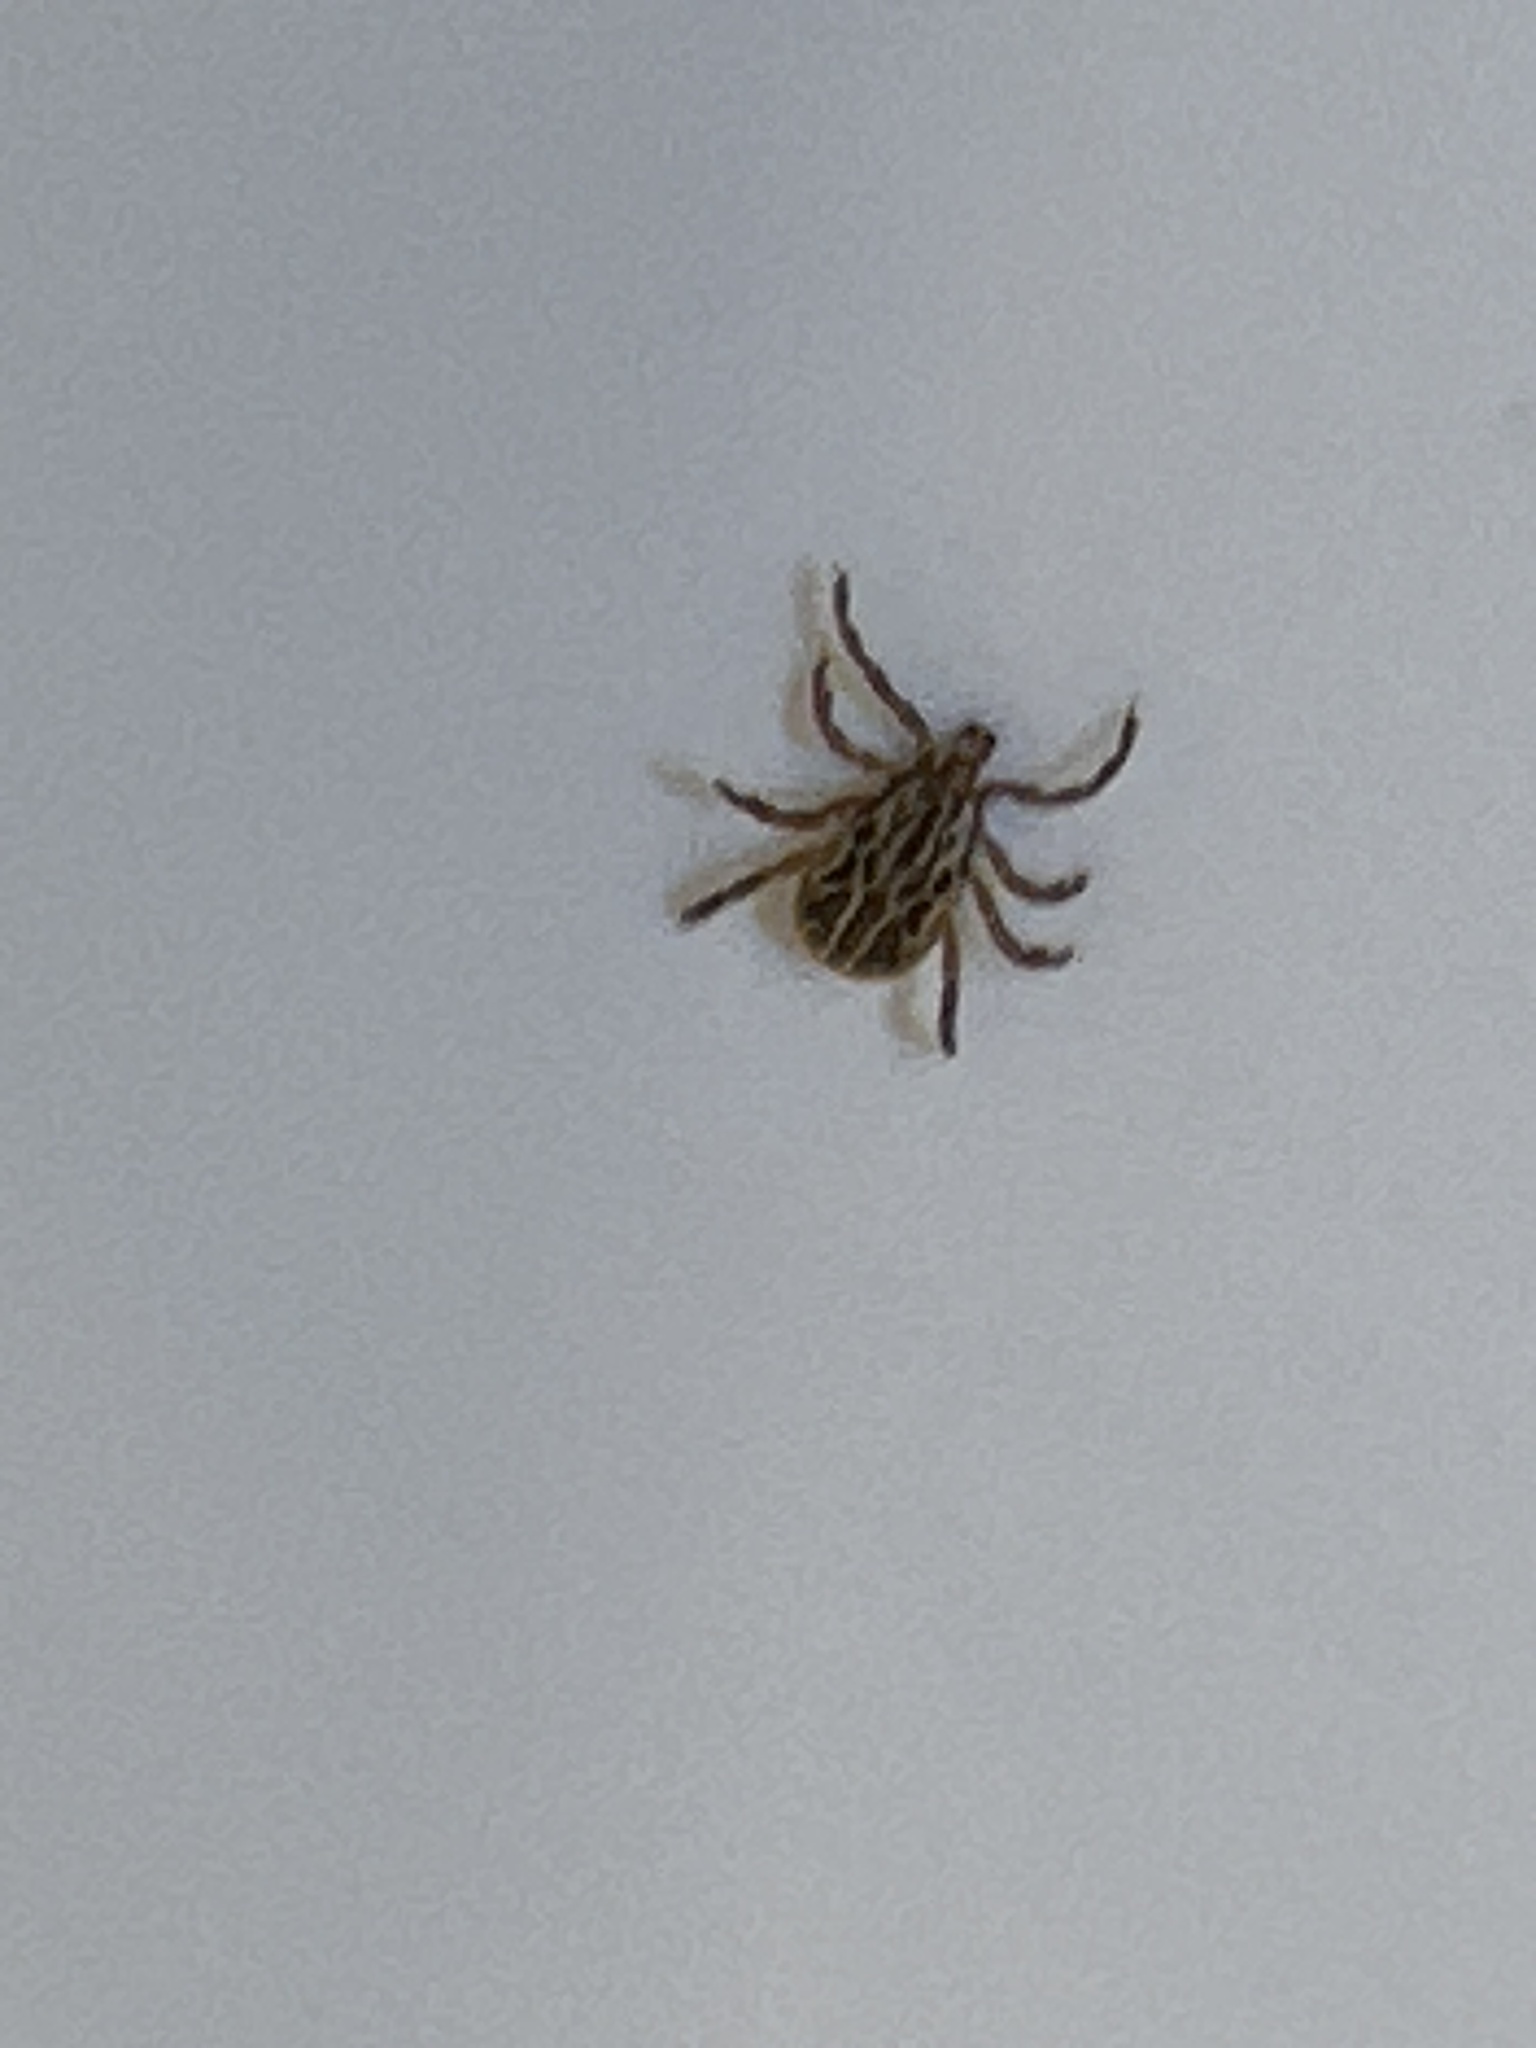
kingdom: Animalia
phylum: Arthropoda
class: Arachnida
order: Ixodida
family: Ixodidae
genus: Amblyomma
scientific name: Amblyomma maculatum
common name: Gulf coast tick
